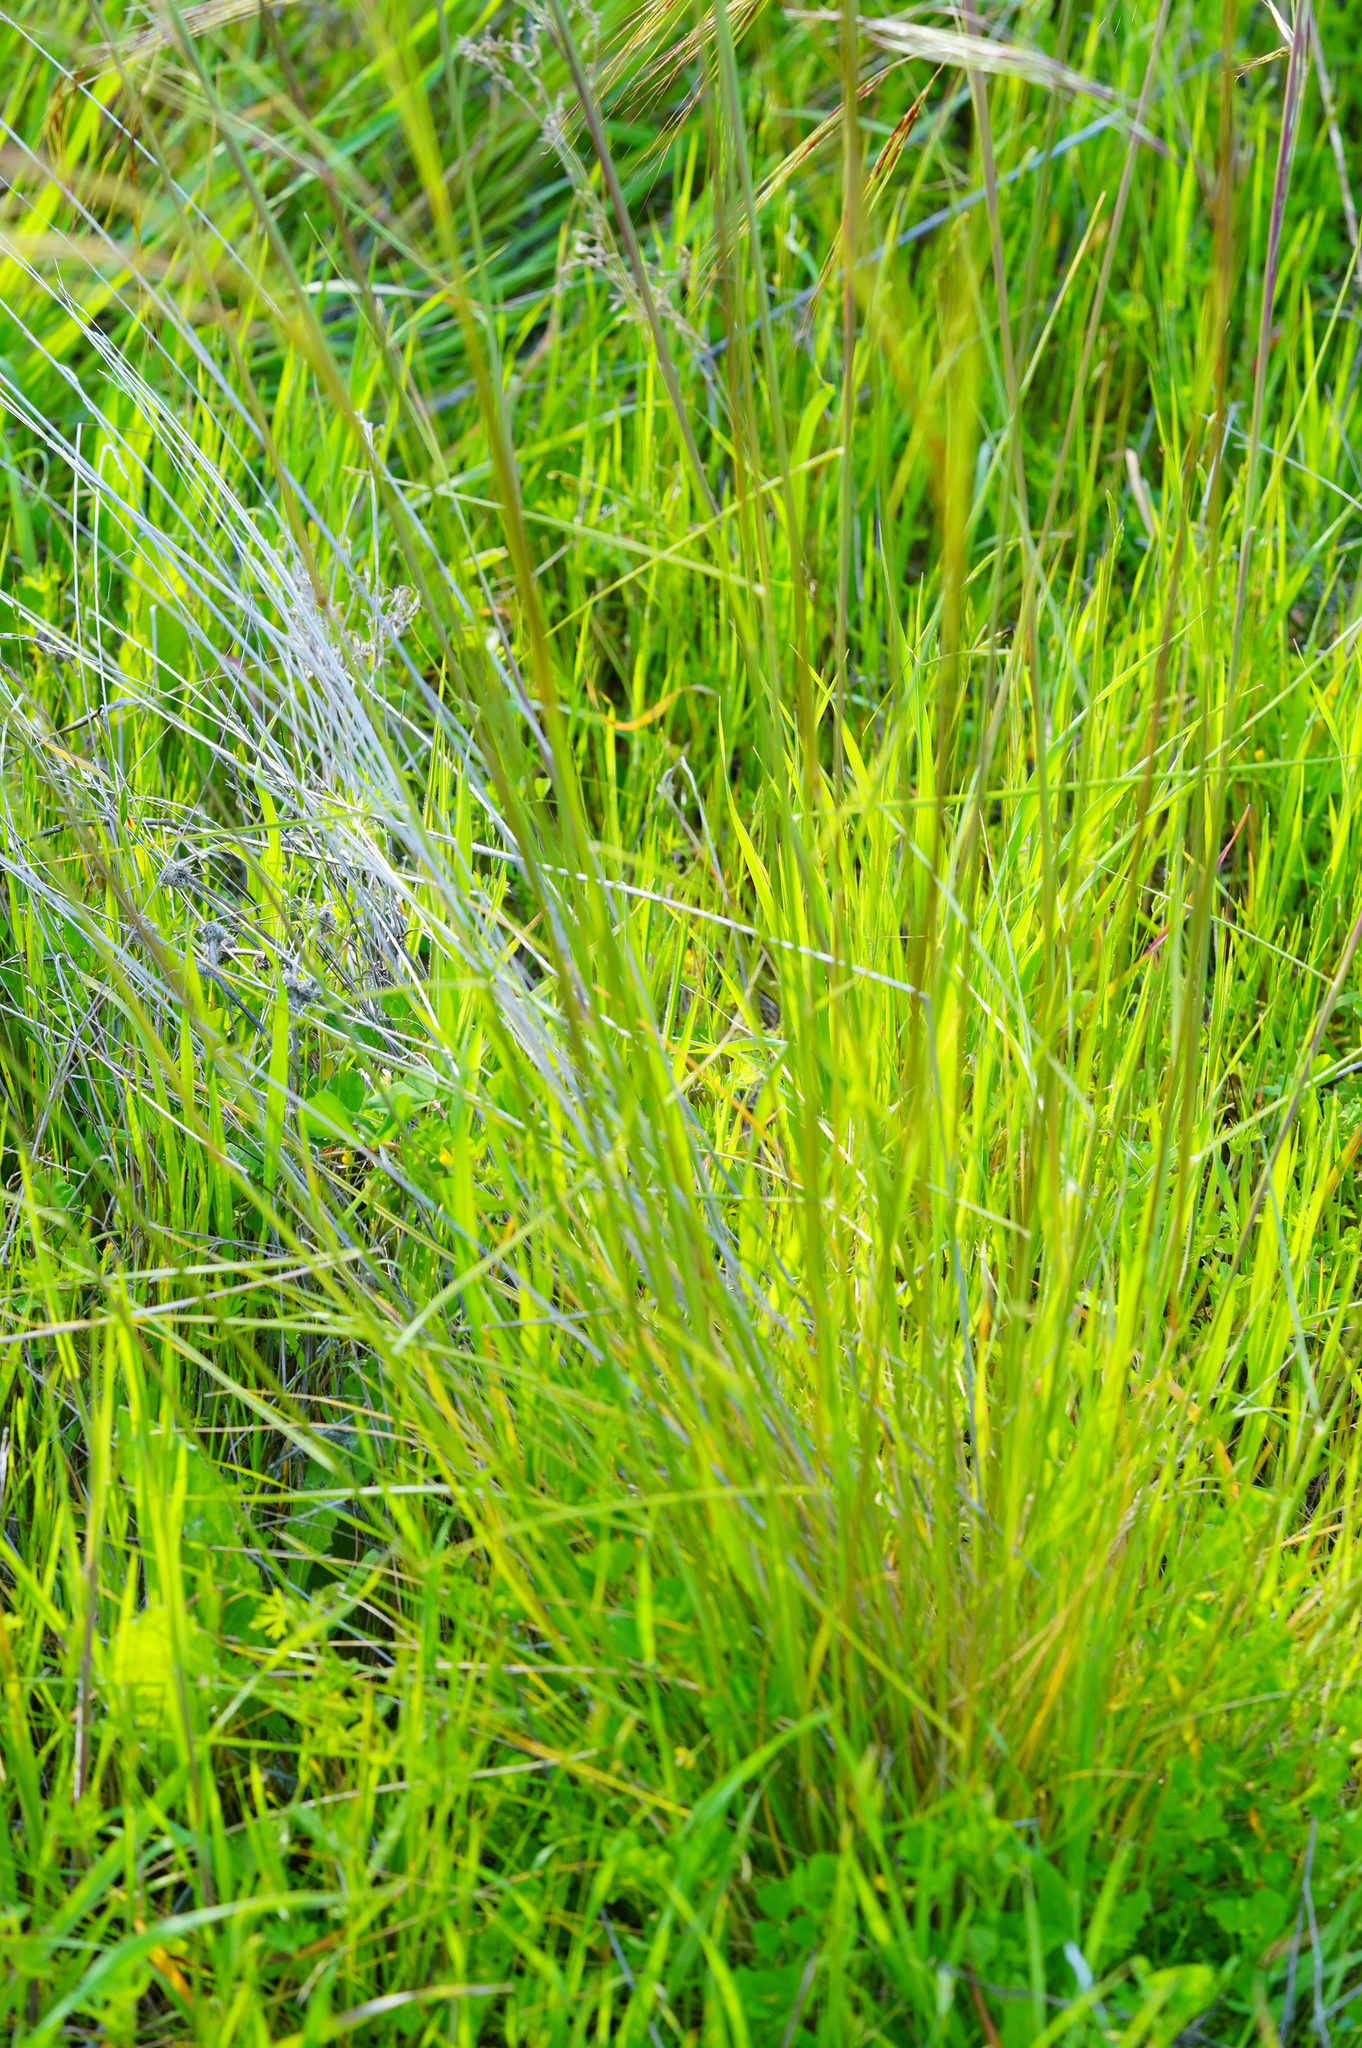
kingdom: Plantae
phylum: Tracheophyta
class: Liliopsida
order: Poales
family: Poaceae
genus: Nassella
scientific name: Nassella pulchra
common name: Purple needlegrass
